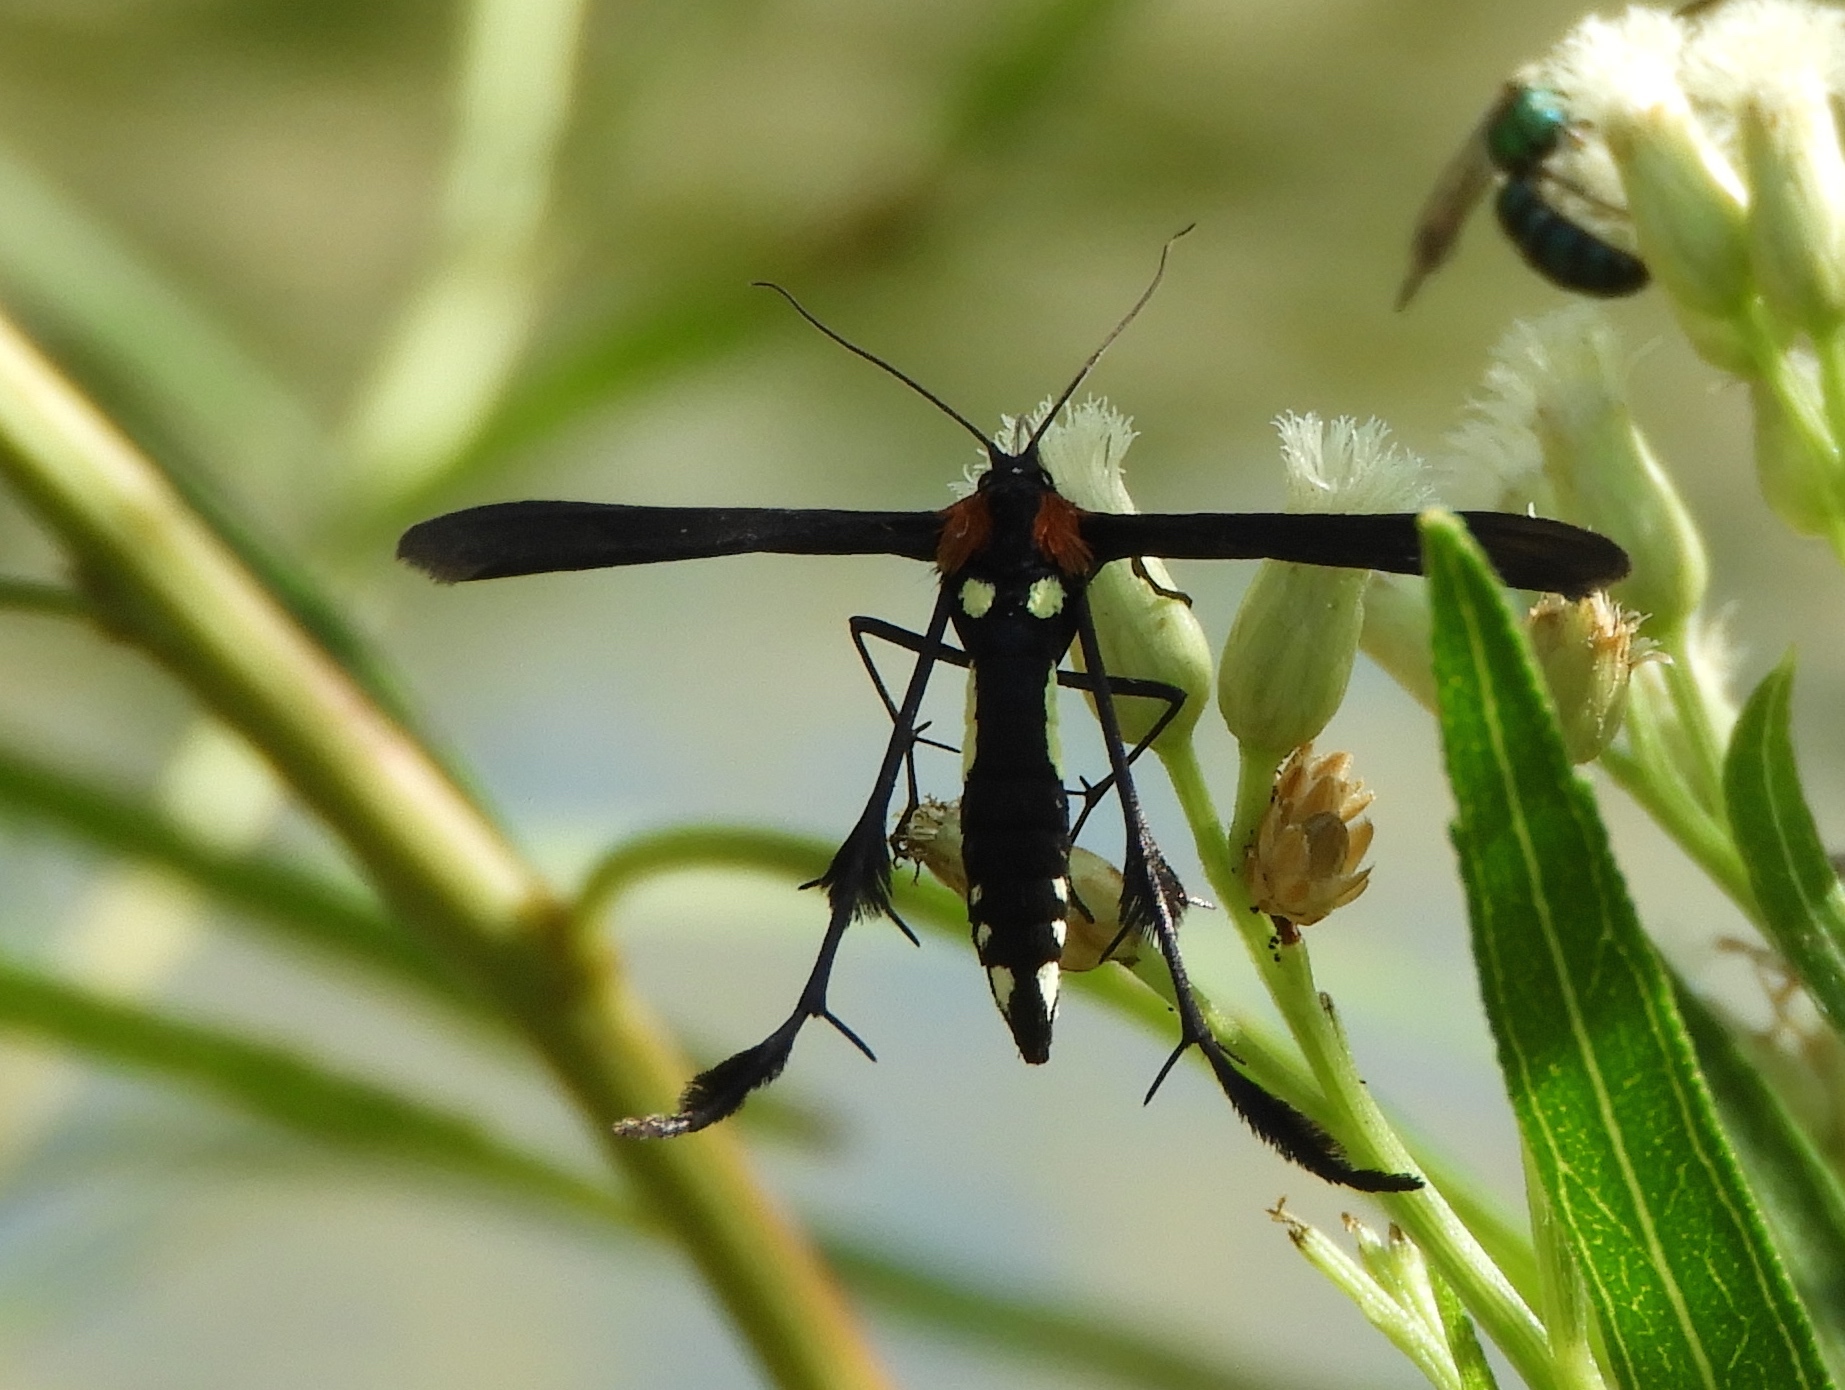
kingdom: Animalia
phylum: Arthropoda
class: Insecta
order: Lepidoptera
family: Pterophoridae
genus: Hellinsia
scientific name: Hellinsia chamelai
